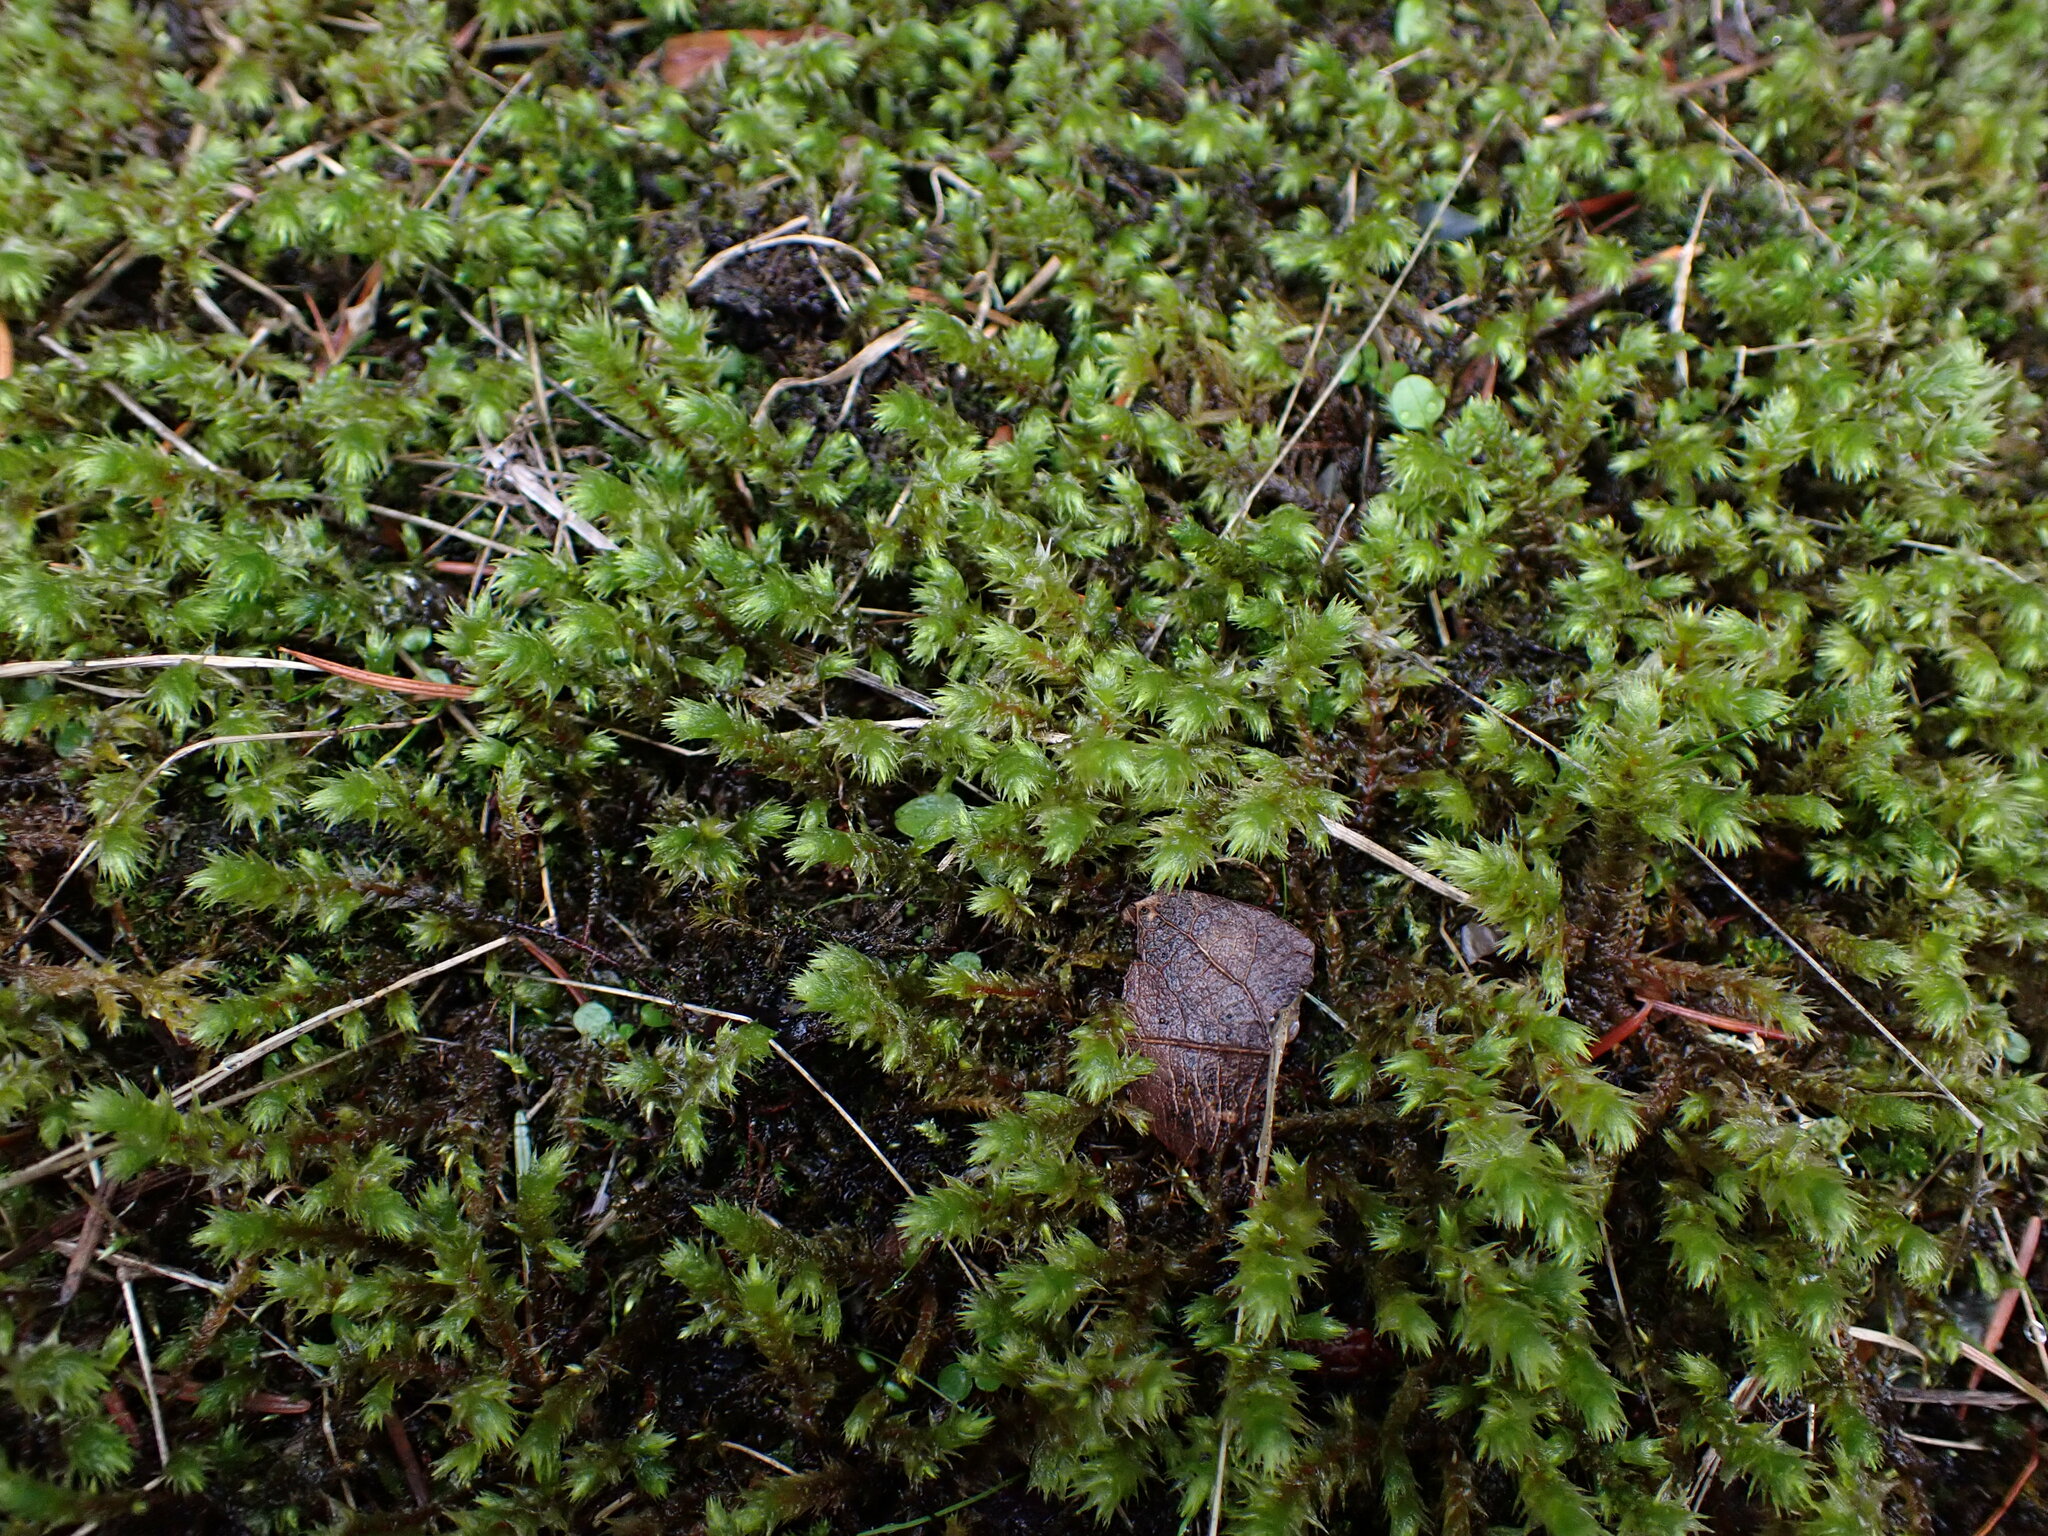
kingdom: Plantae
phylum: Bryophyta
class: Bryopsida
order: Hypnales
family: Hylocomiaceae
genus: Hylocomiadelphus
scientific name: Hylocomiadelphus triquetrus
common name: Rough goose neck moss
